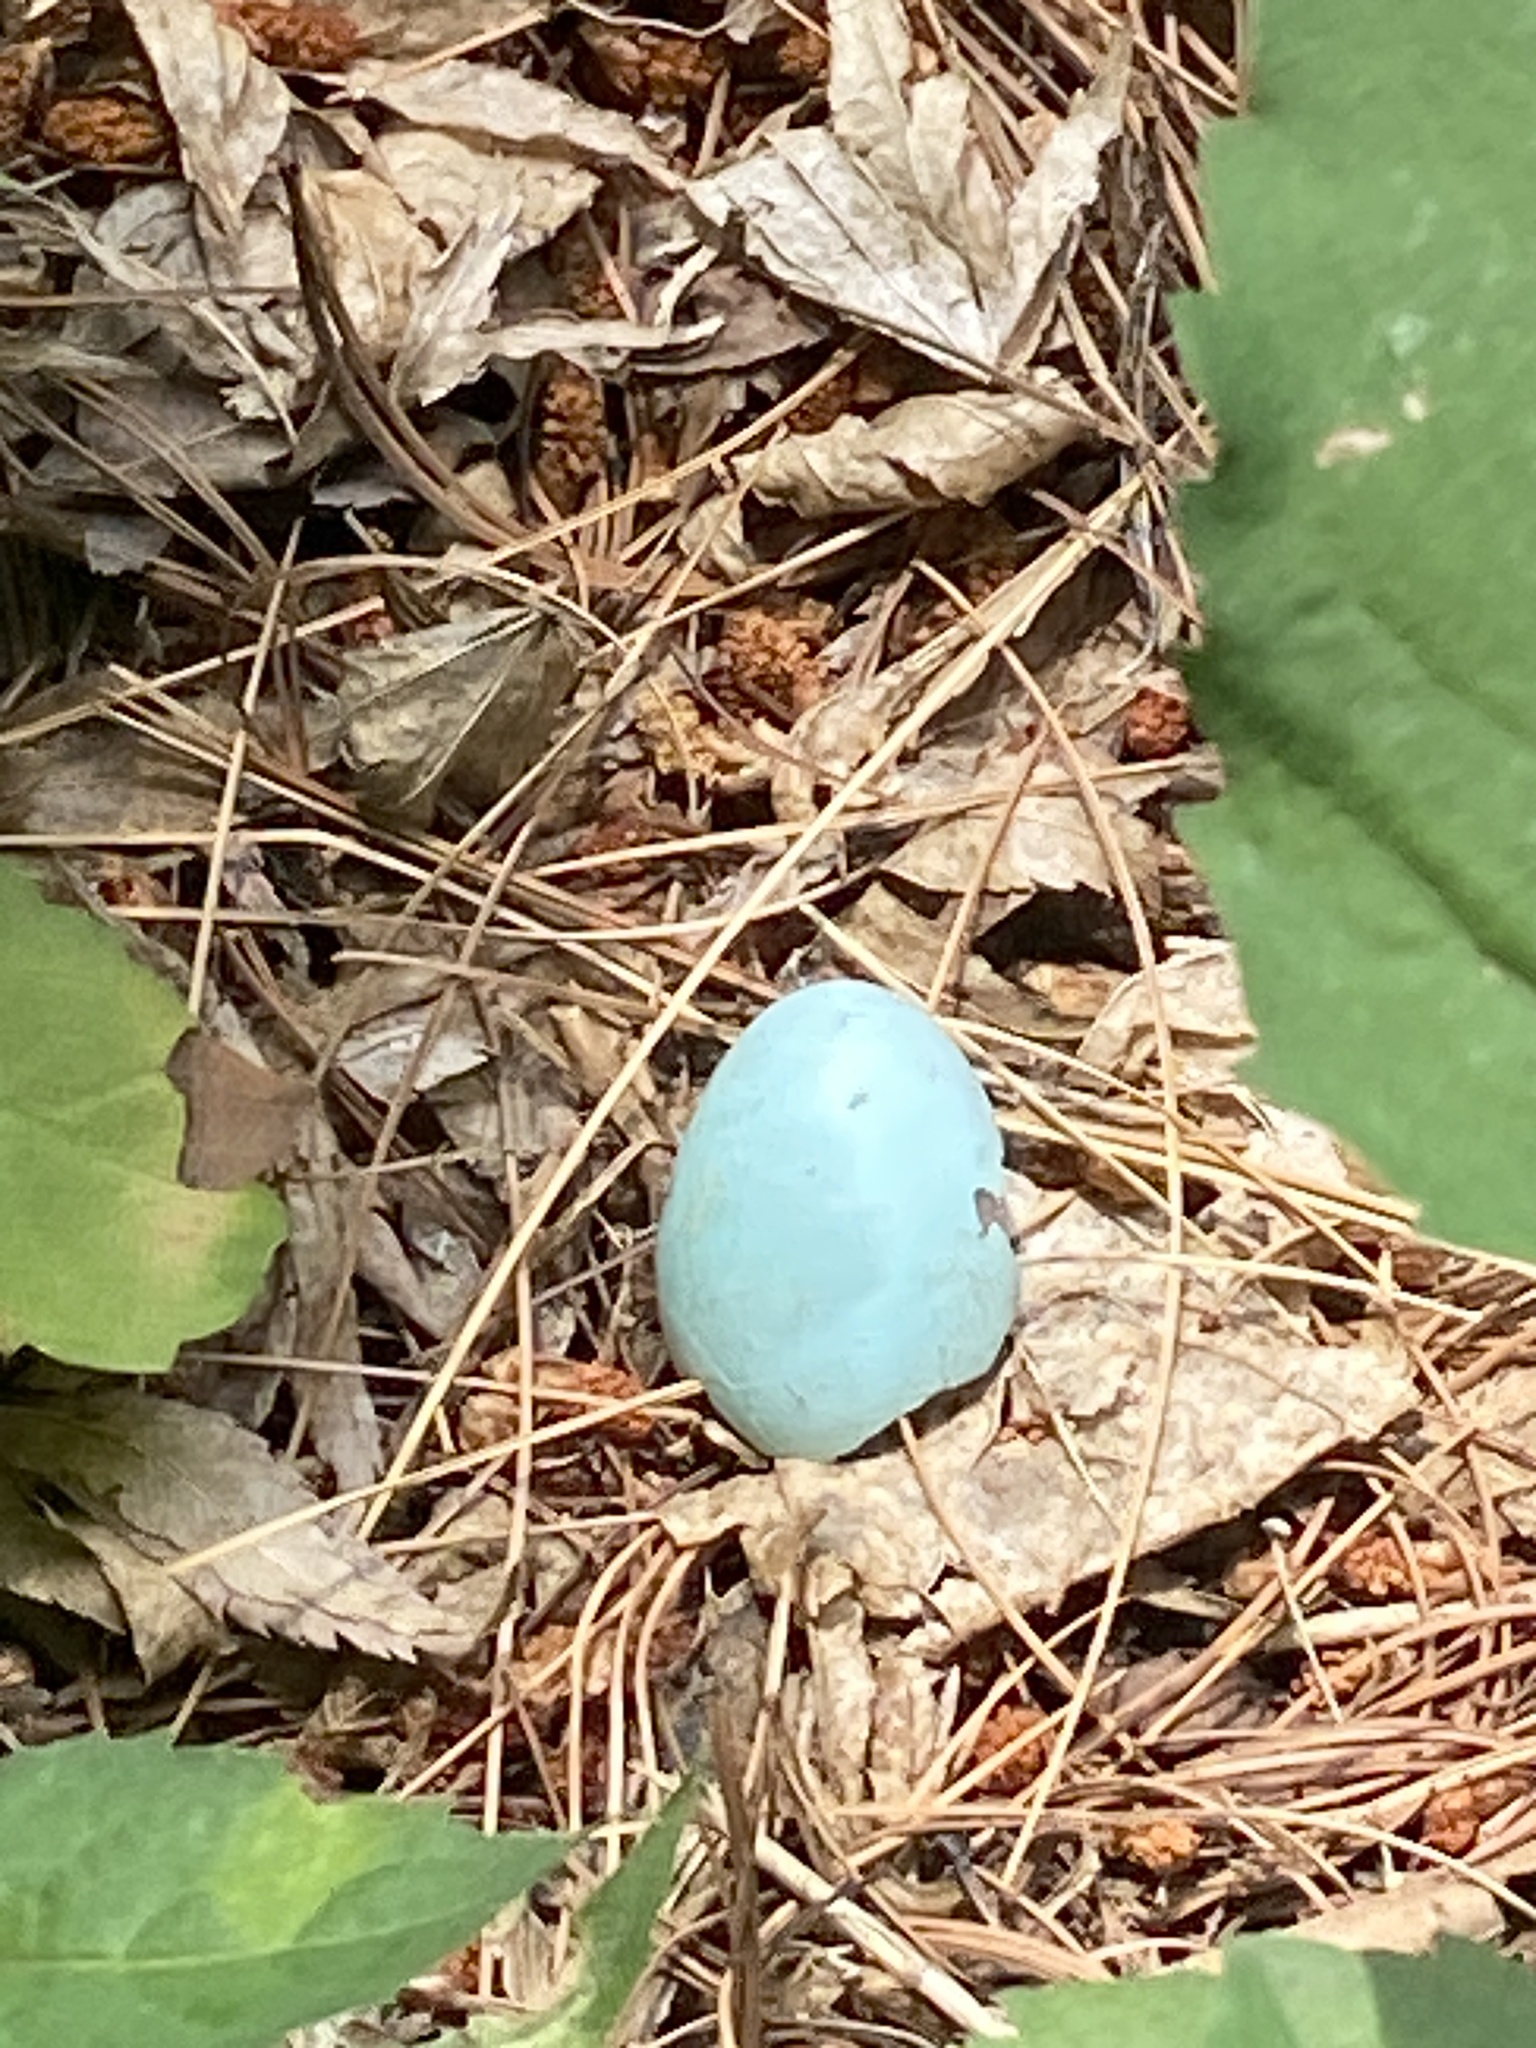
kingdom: Animalia
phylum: Chordata
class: Aves
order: Passeriformes
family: Turdidae
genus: Turdus
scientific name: Turdus migratorius
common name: American robin
